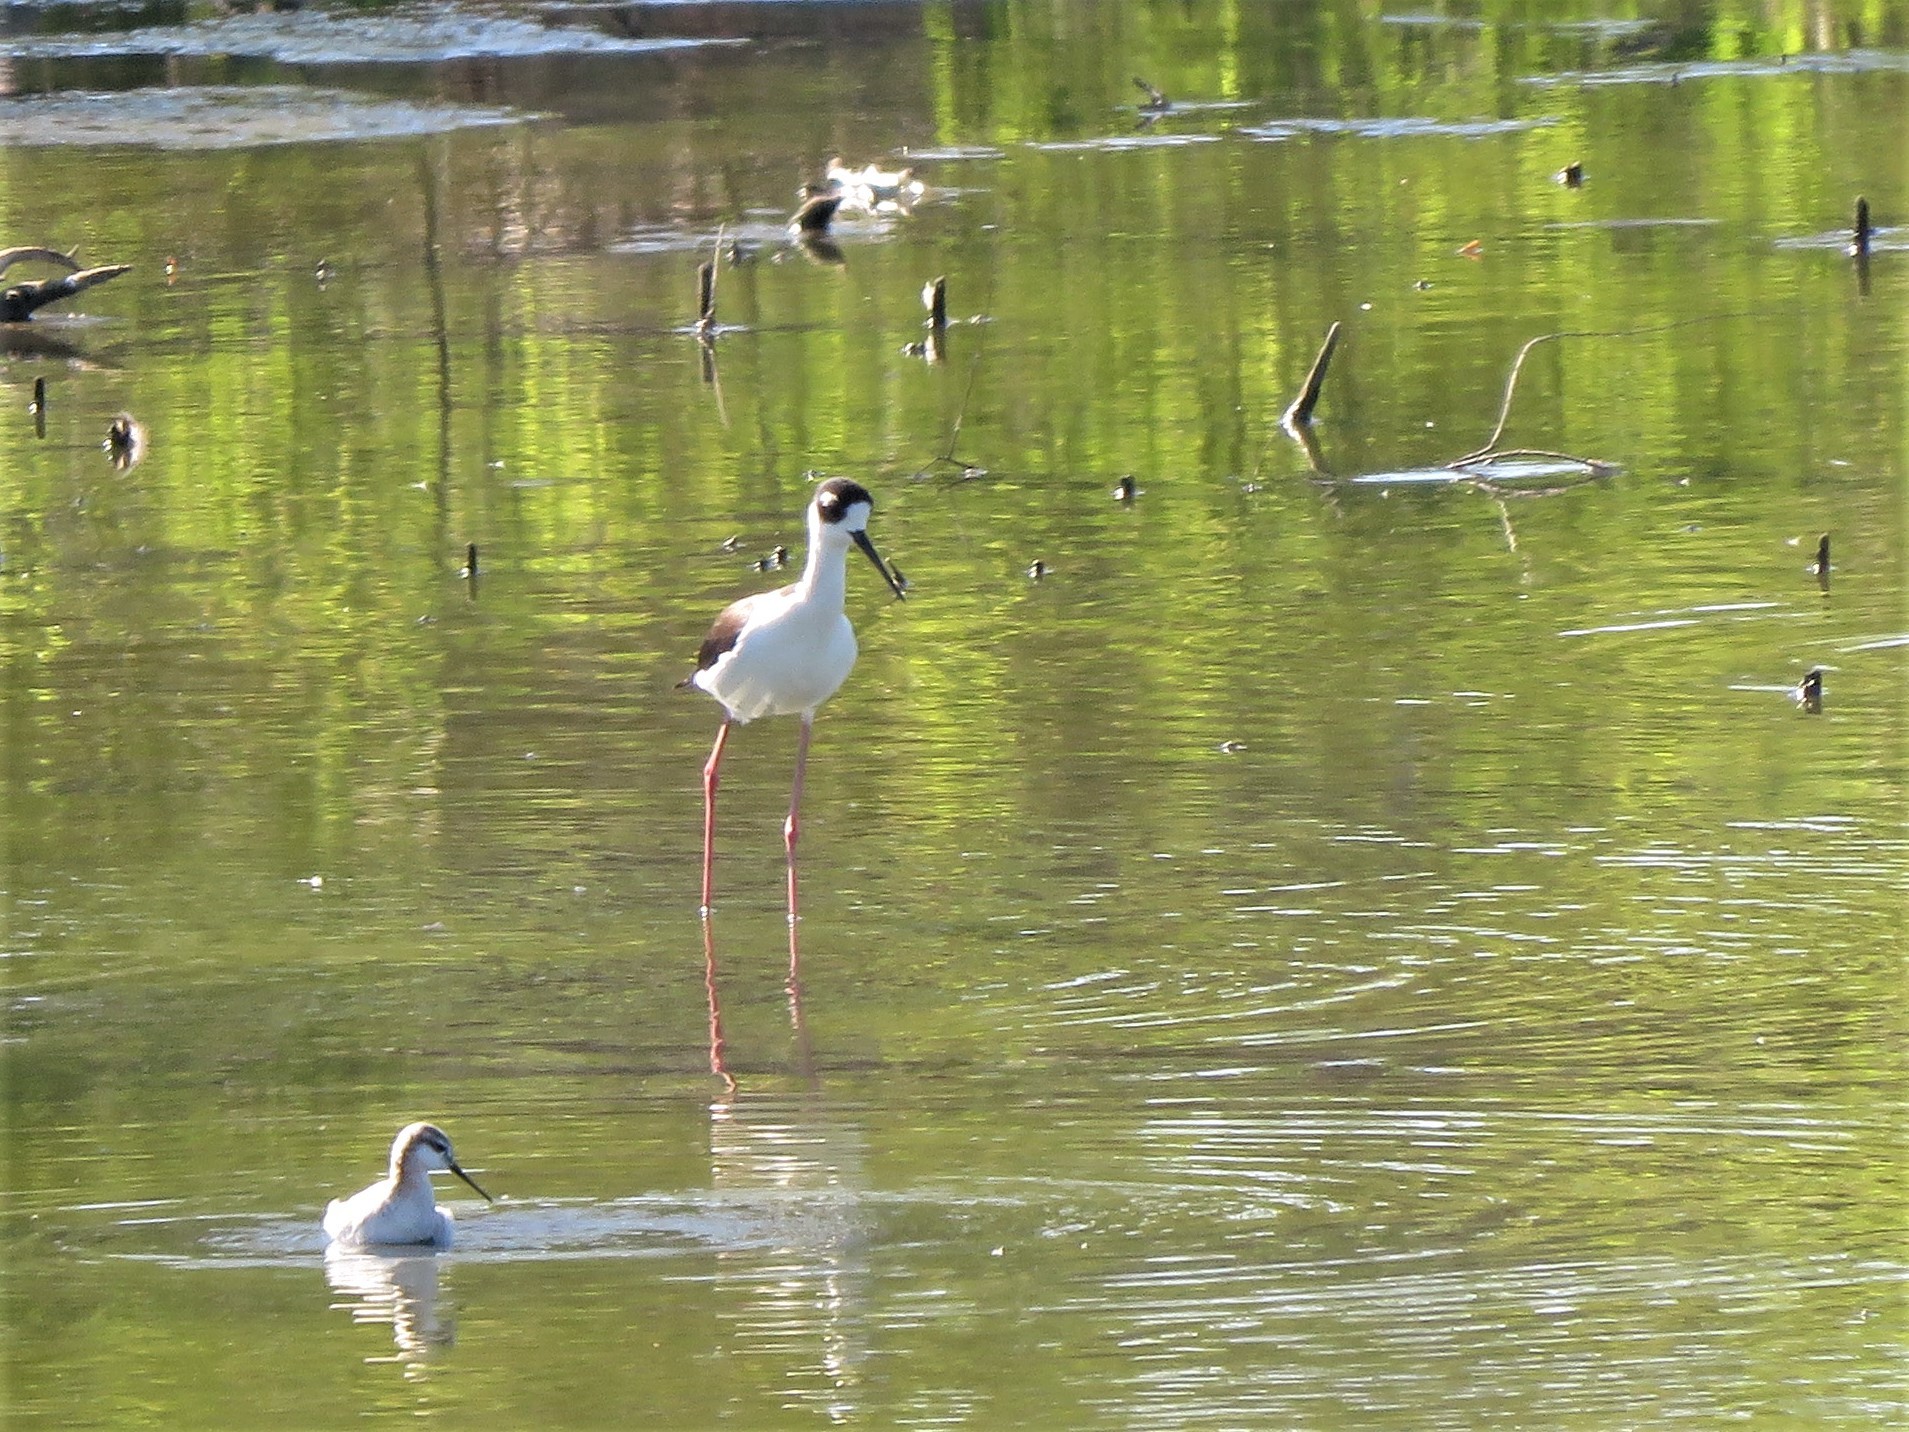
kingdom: Animalia
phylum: Chordata
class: Aves
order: Charadriiformes
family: Recurvirostridae
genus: Himantopus
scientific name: Himantopus mexicanus
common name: Black-necked stilt
